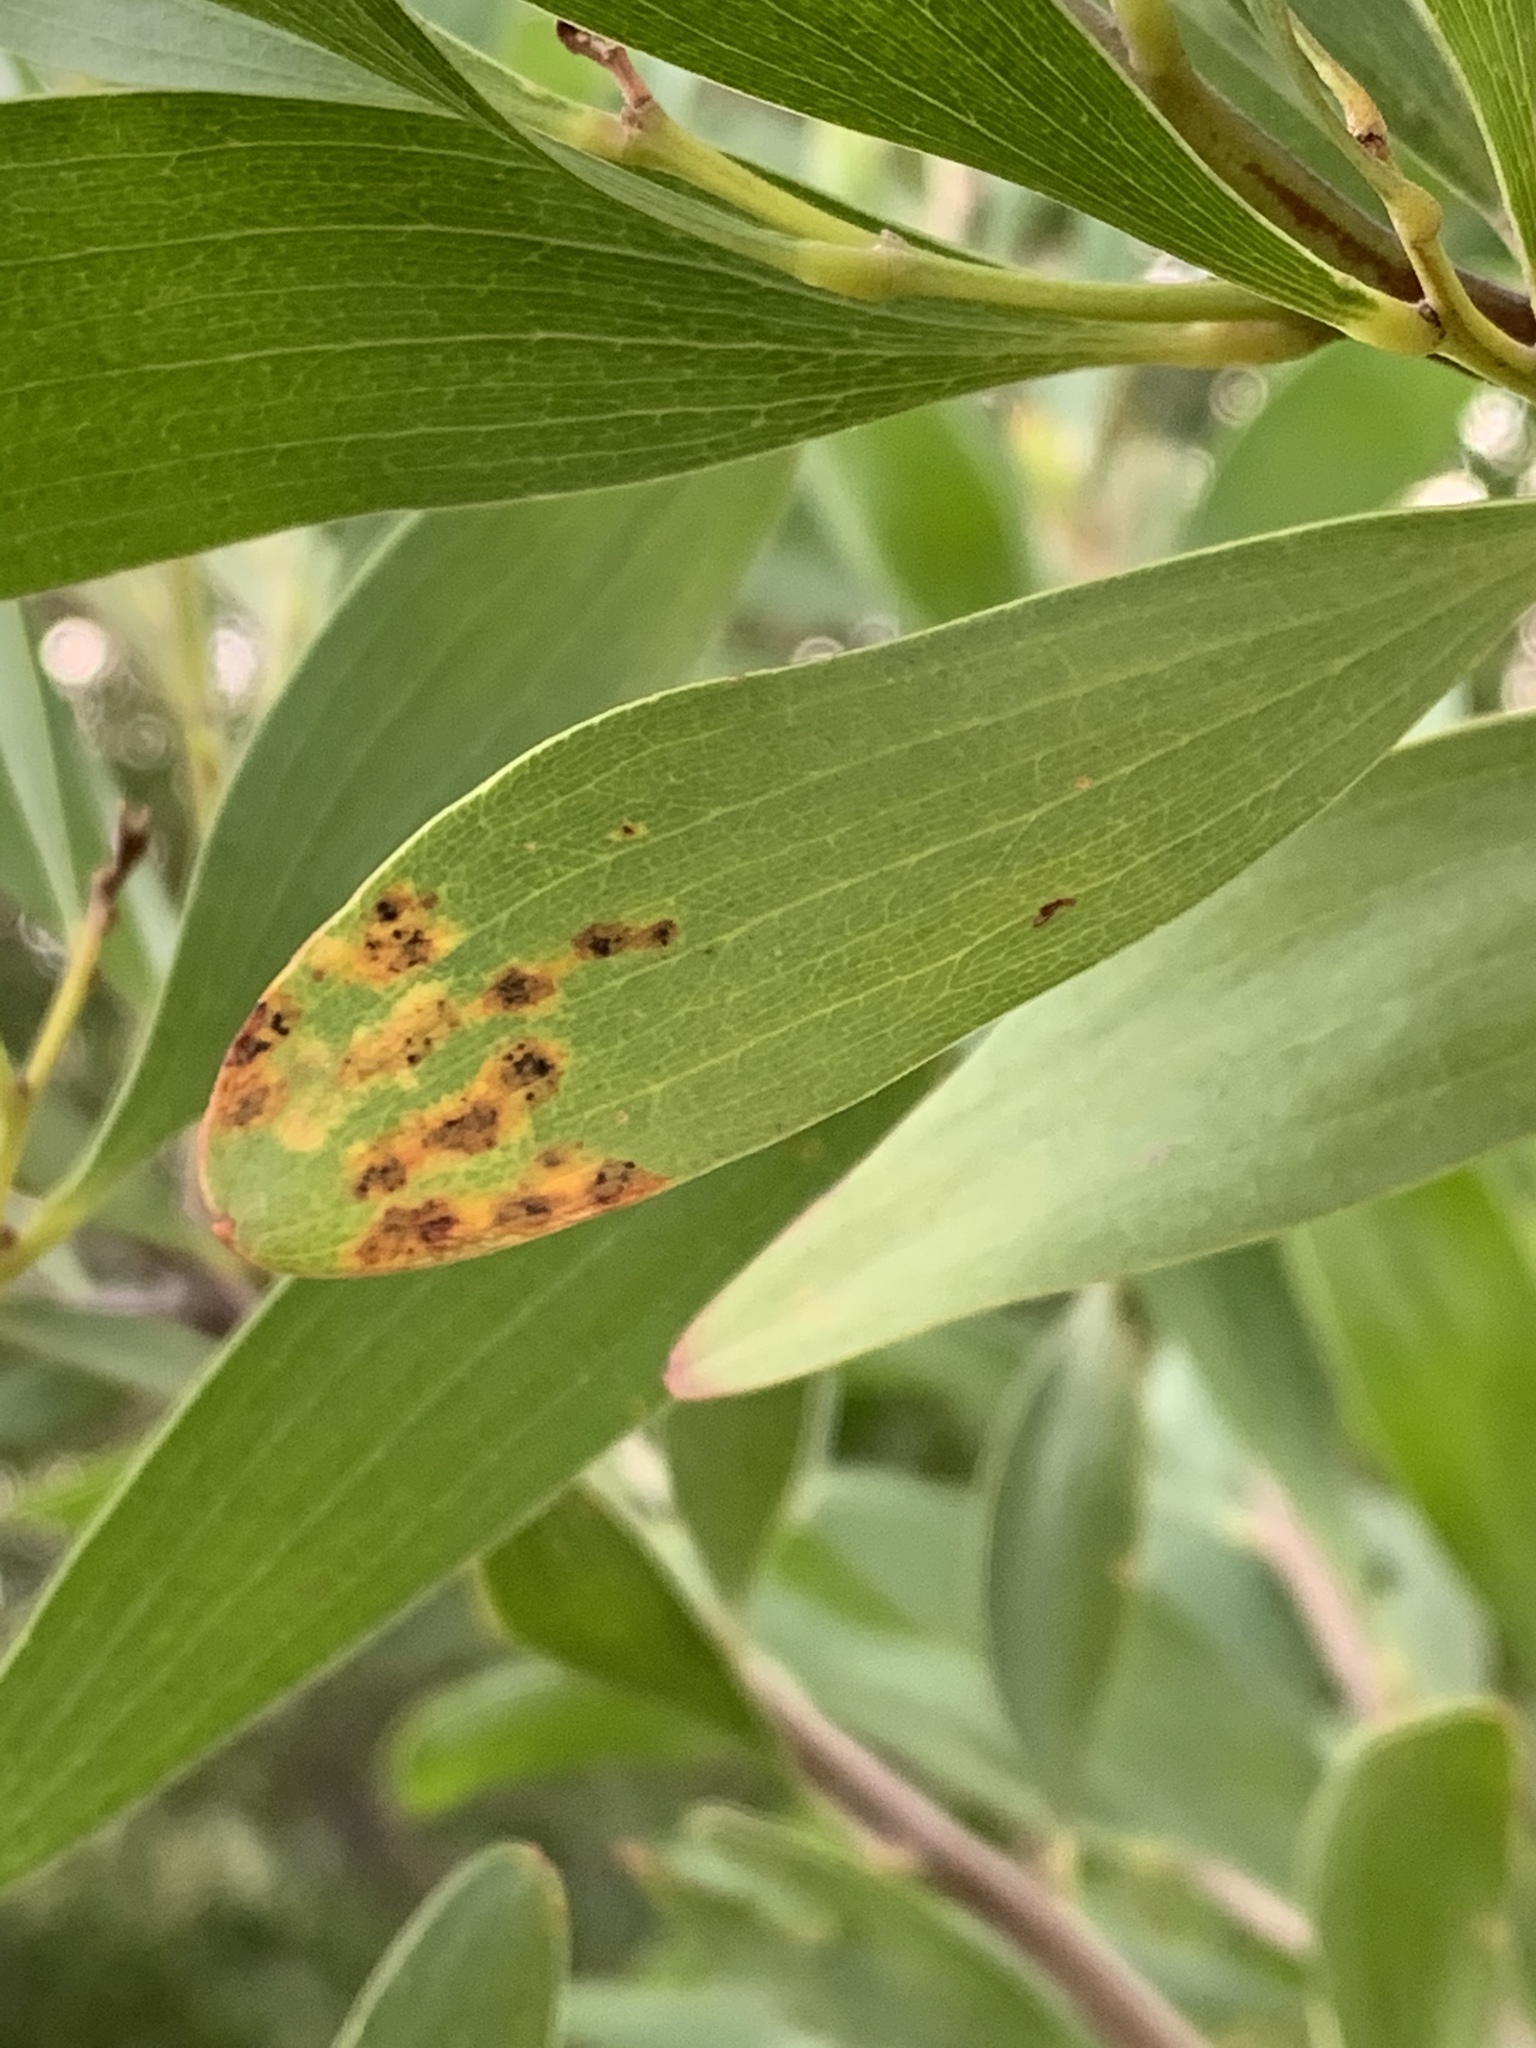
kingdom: Plantae
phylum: Tracheophyta
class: Magnoliopsida
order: Fabales
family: Fabaceae
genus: Acacia
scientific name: Acacia melanoxylon
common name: Blackwood
